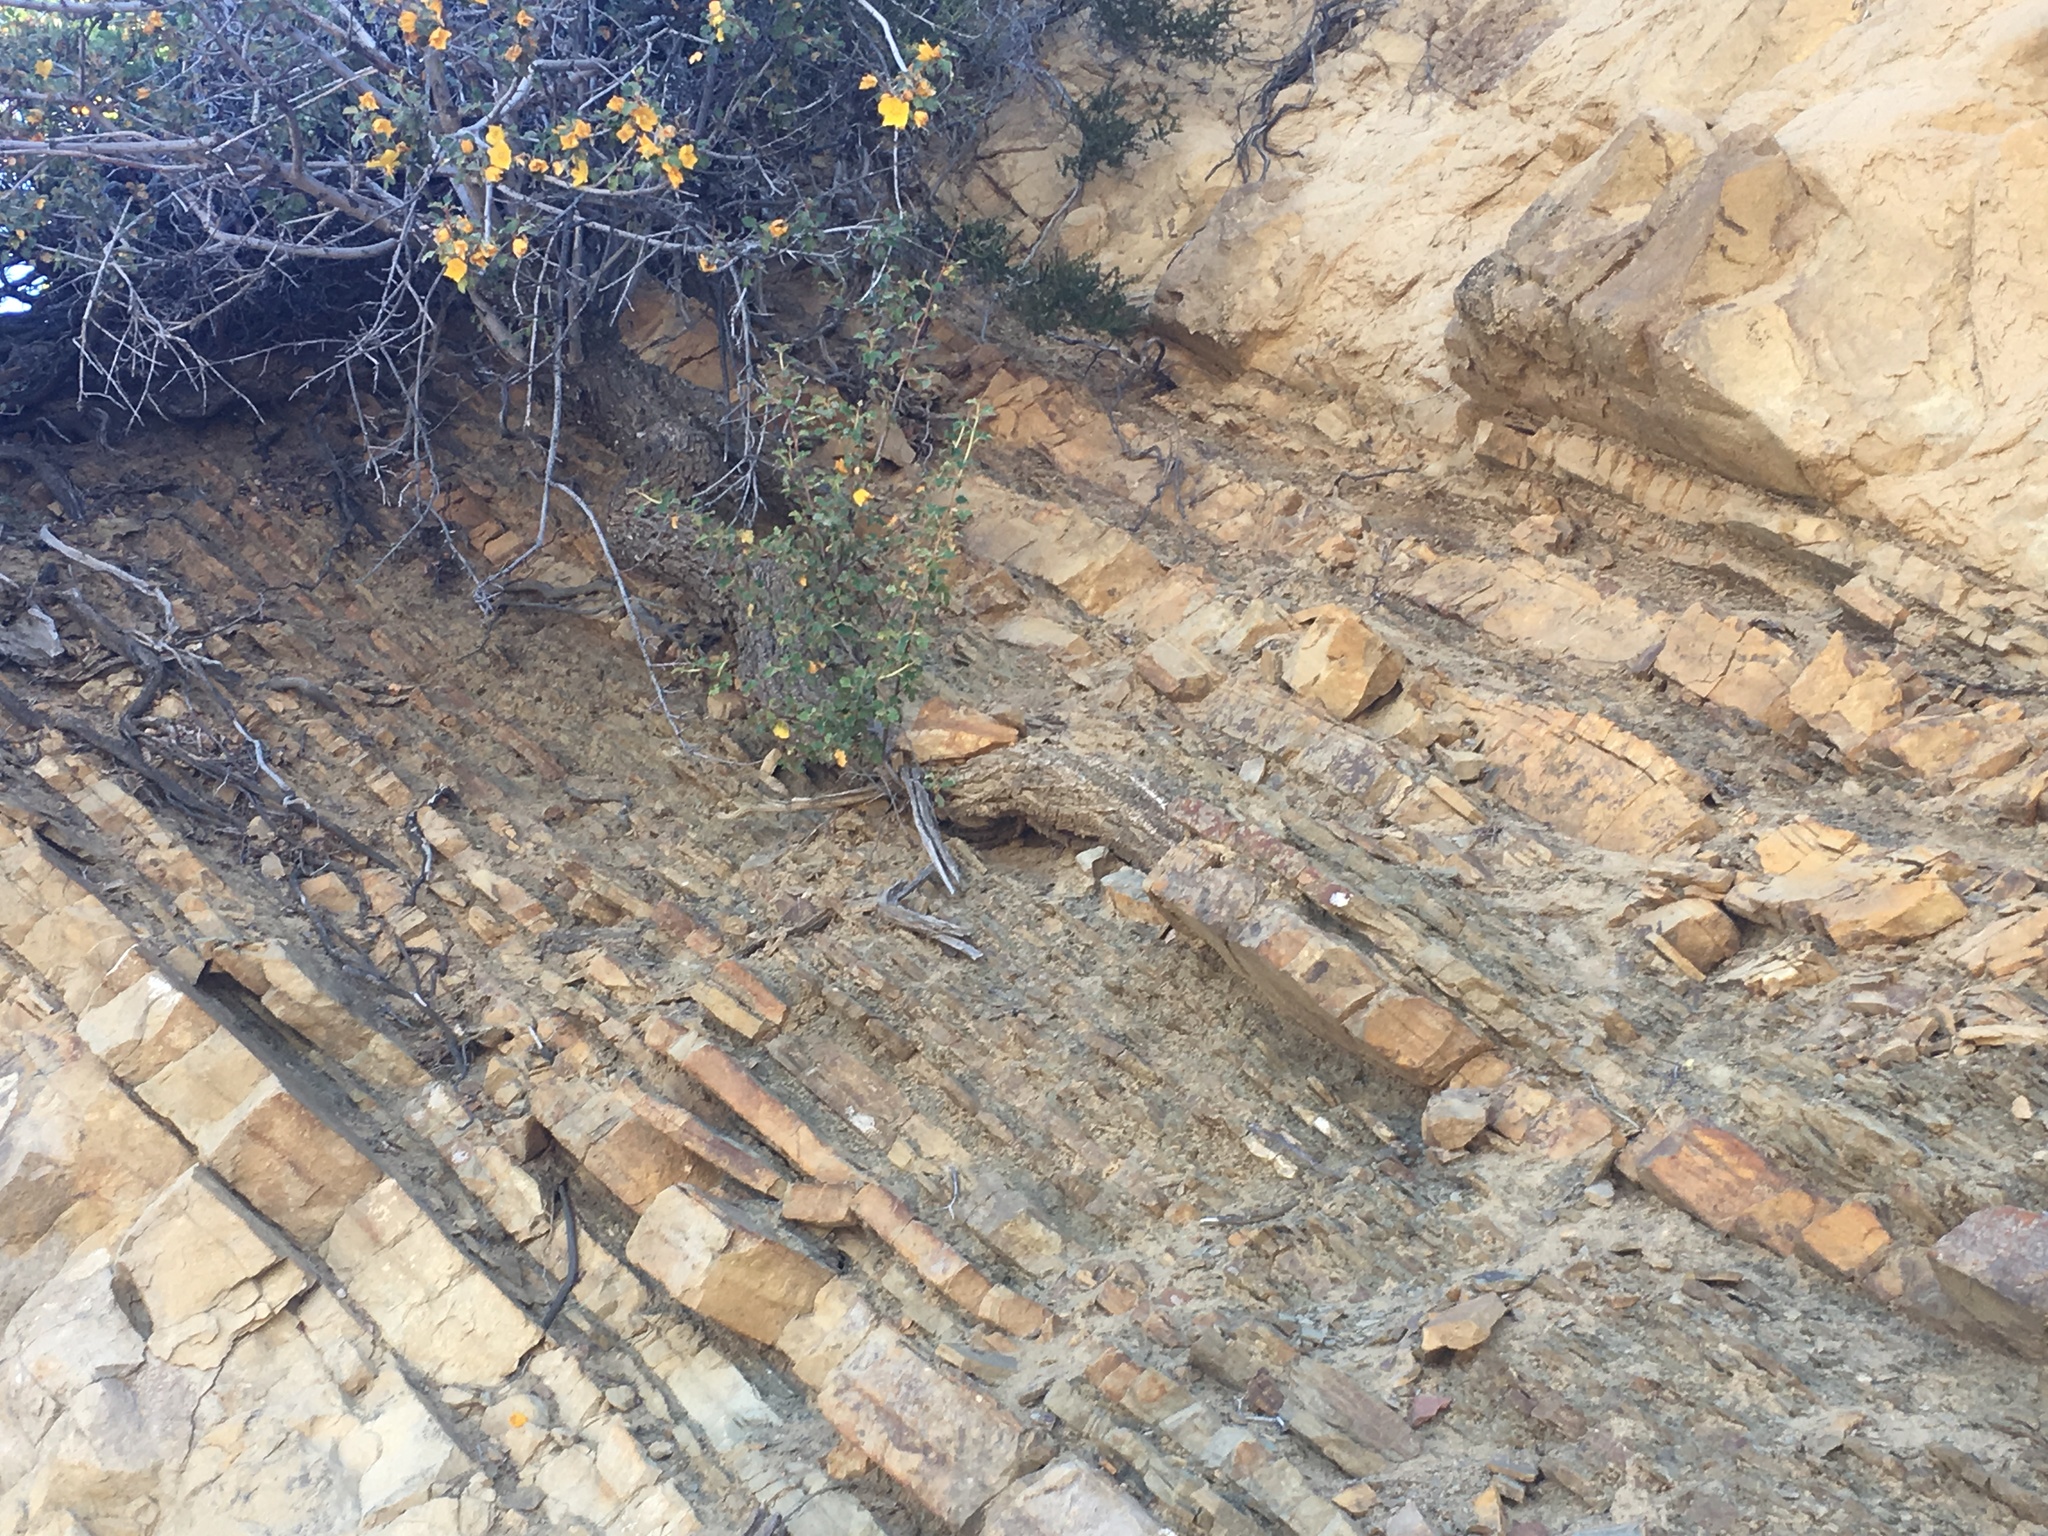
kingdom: Plantae
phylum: Tracheophyta
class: Magnoliopsida
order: Ranunculales
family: Papaveraceae
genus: Dendromecon
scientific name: Dendromecon rigida
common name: Tree poppy
